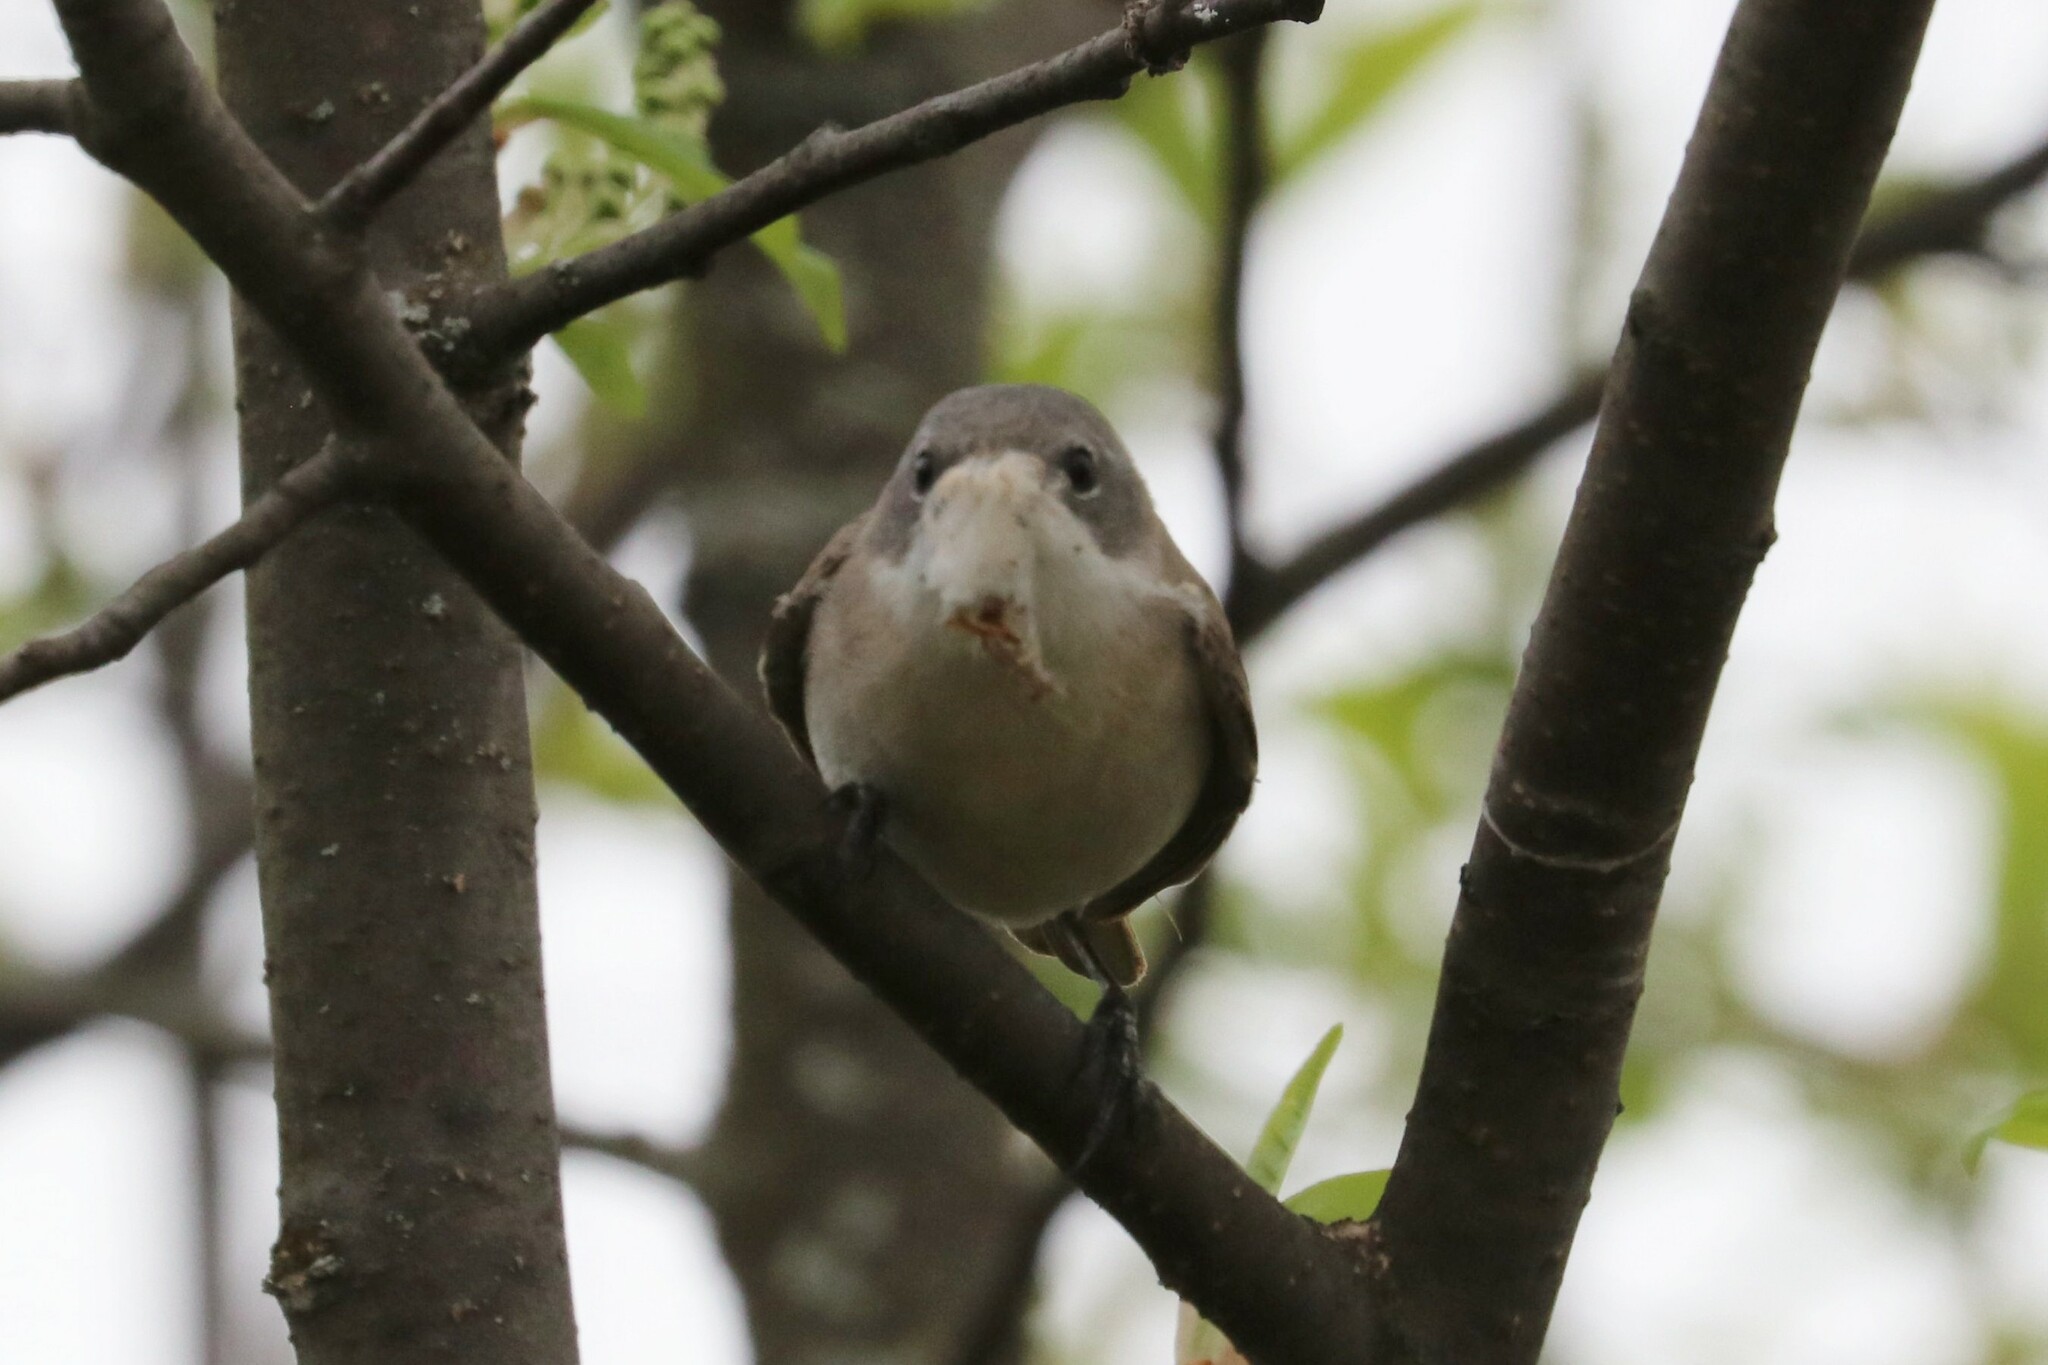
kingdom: Animalia
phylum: Chordata
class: Aves
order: Passeriformes
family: Sylviidae
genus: Sylvia
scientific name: Sylvia curruca
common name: Lesser whitethroat
